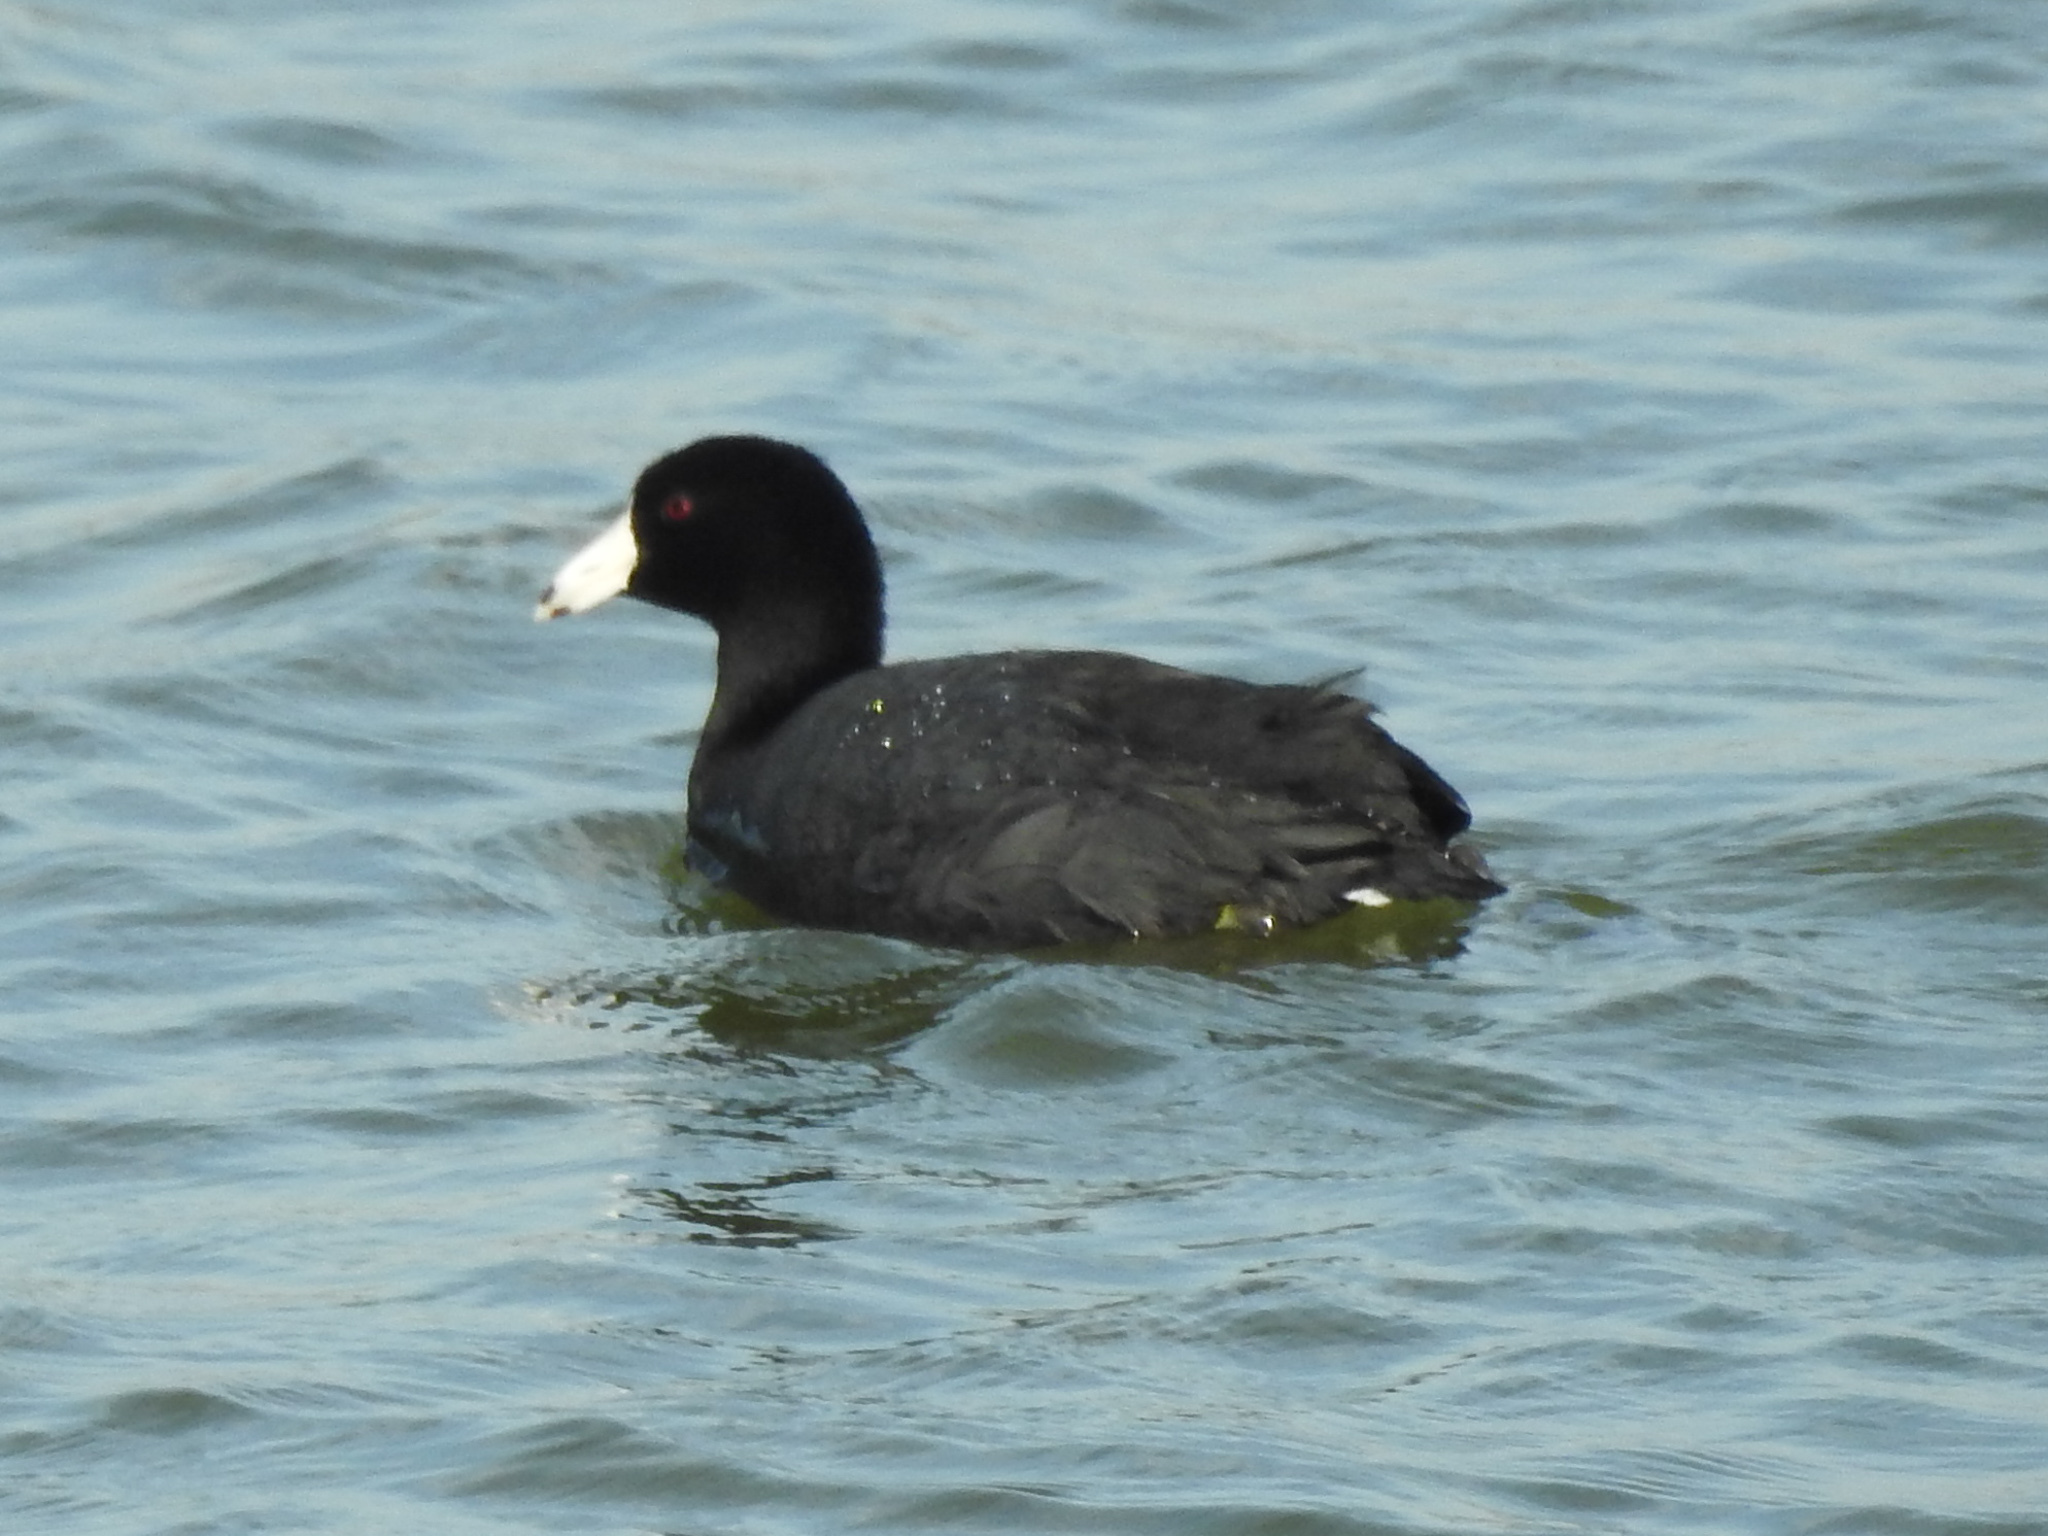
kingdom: Animalia
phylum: Chordata
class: Aves
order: Gruiformes
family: Rallidae
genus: Fulica
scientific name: Fulica americana
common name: American coot
